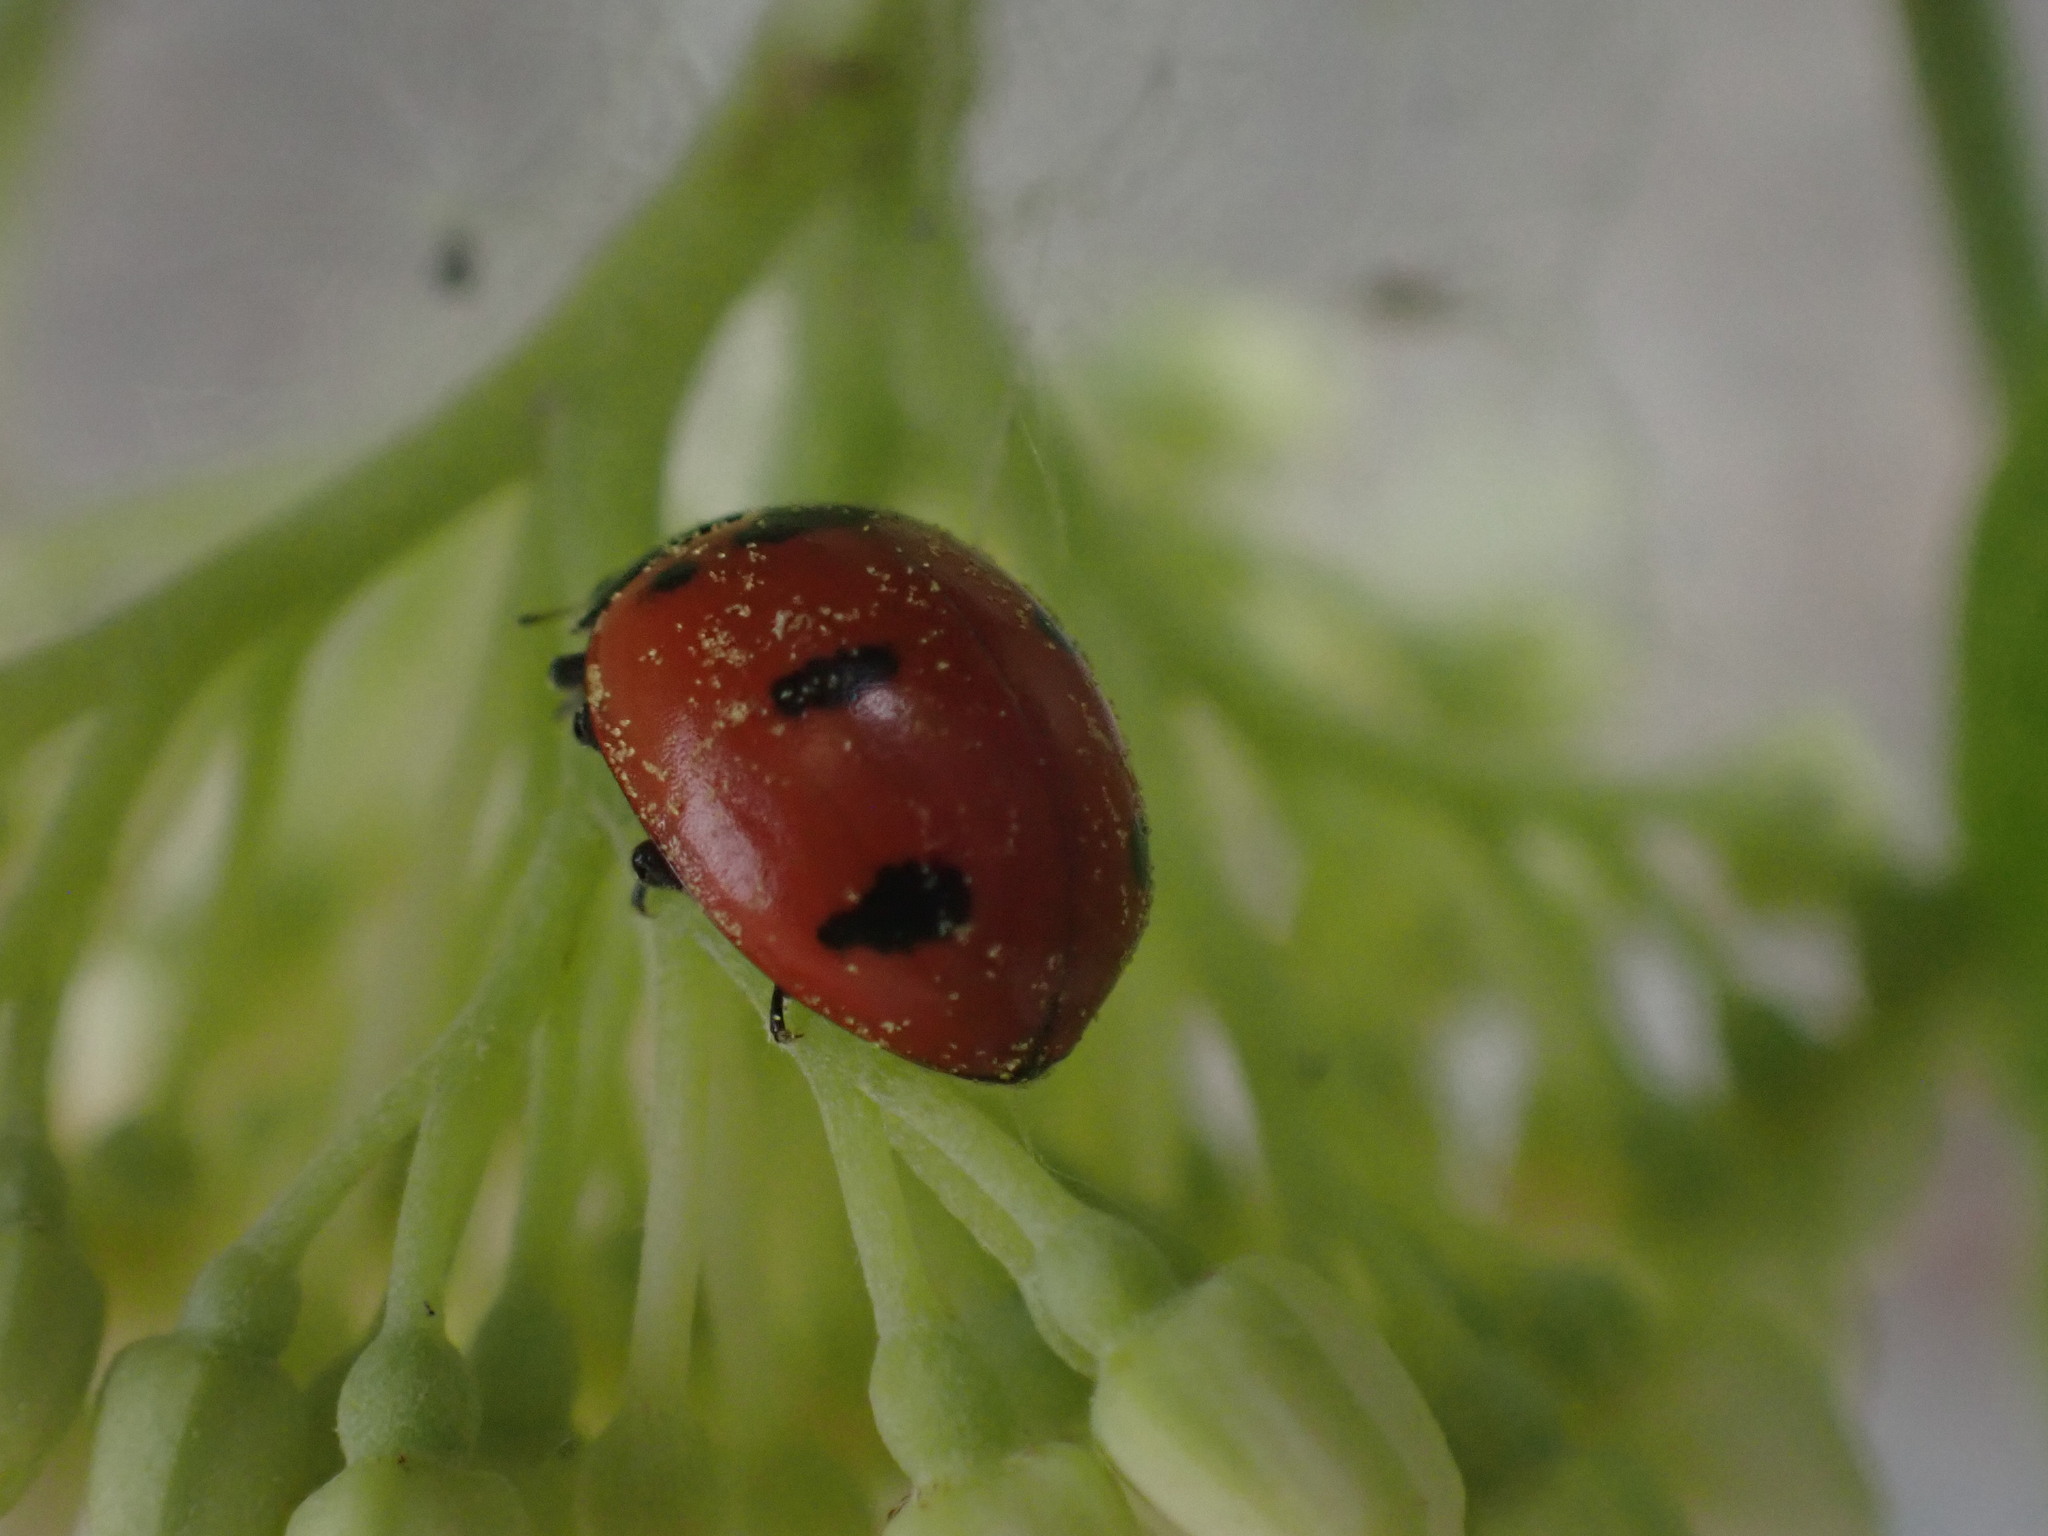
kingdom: Animalia
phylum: Arthropoda
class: Insecta
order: Coleoptera
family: Coccinellidae
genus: Coccinella
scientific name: Coccinella transversoguttata
